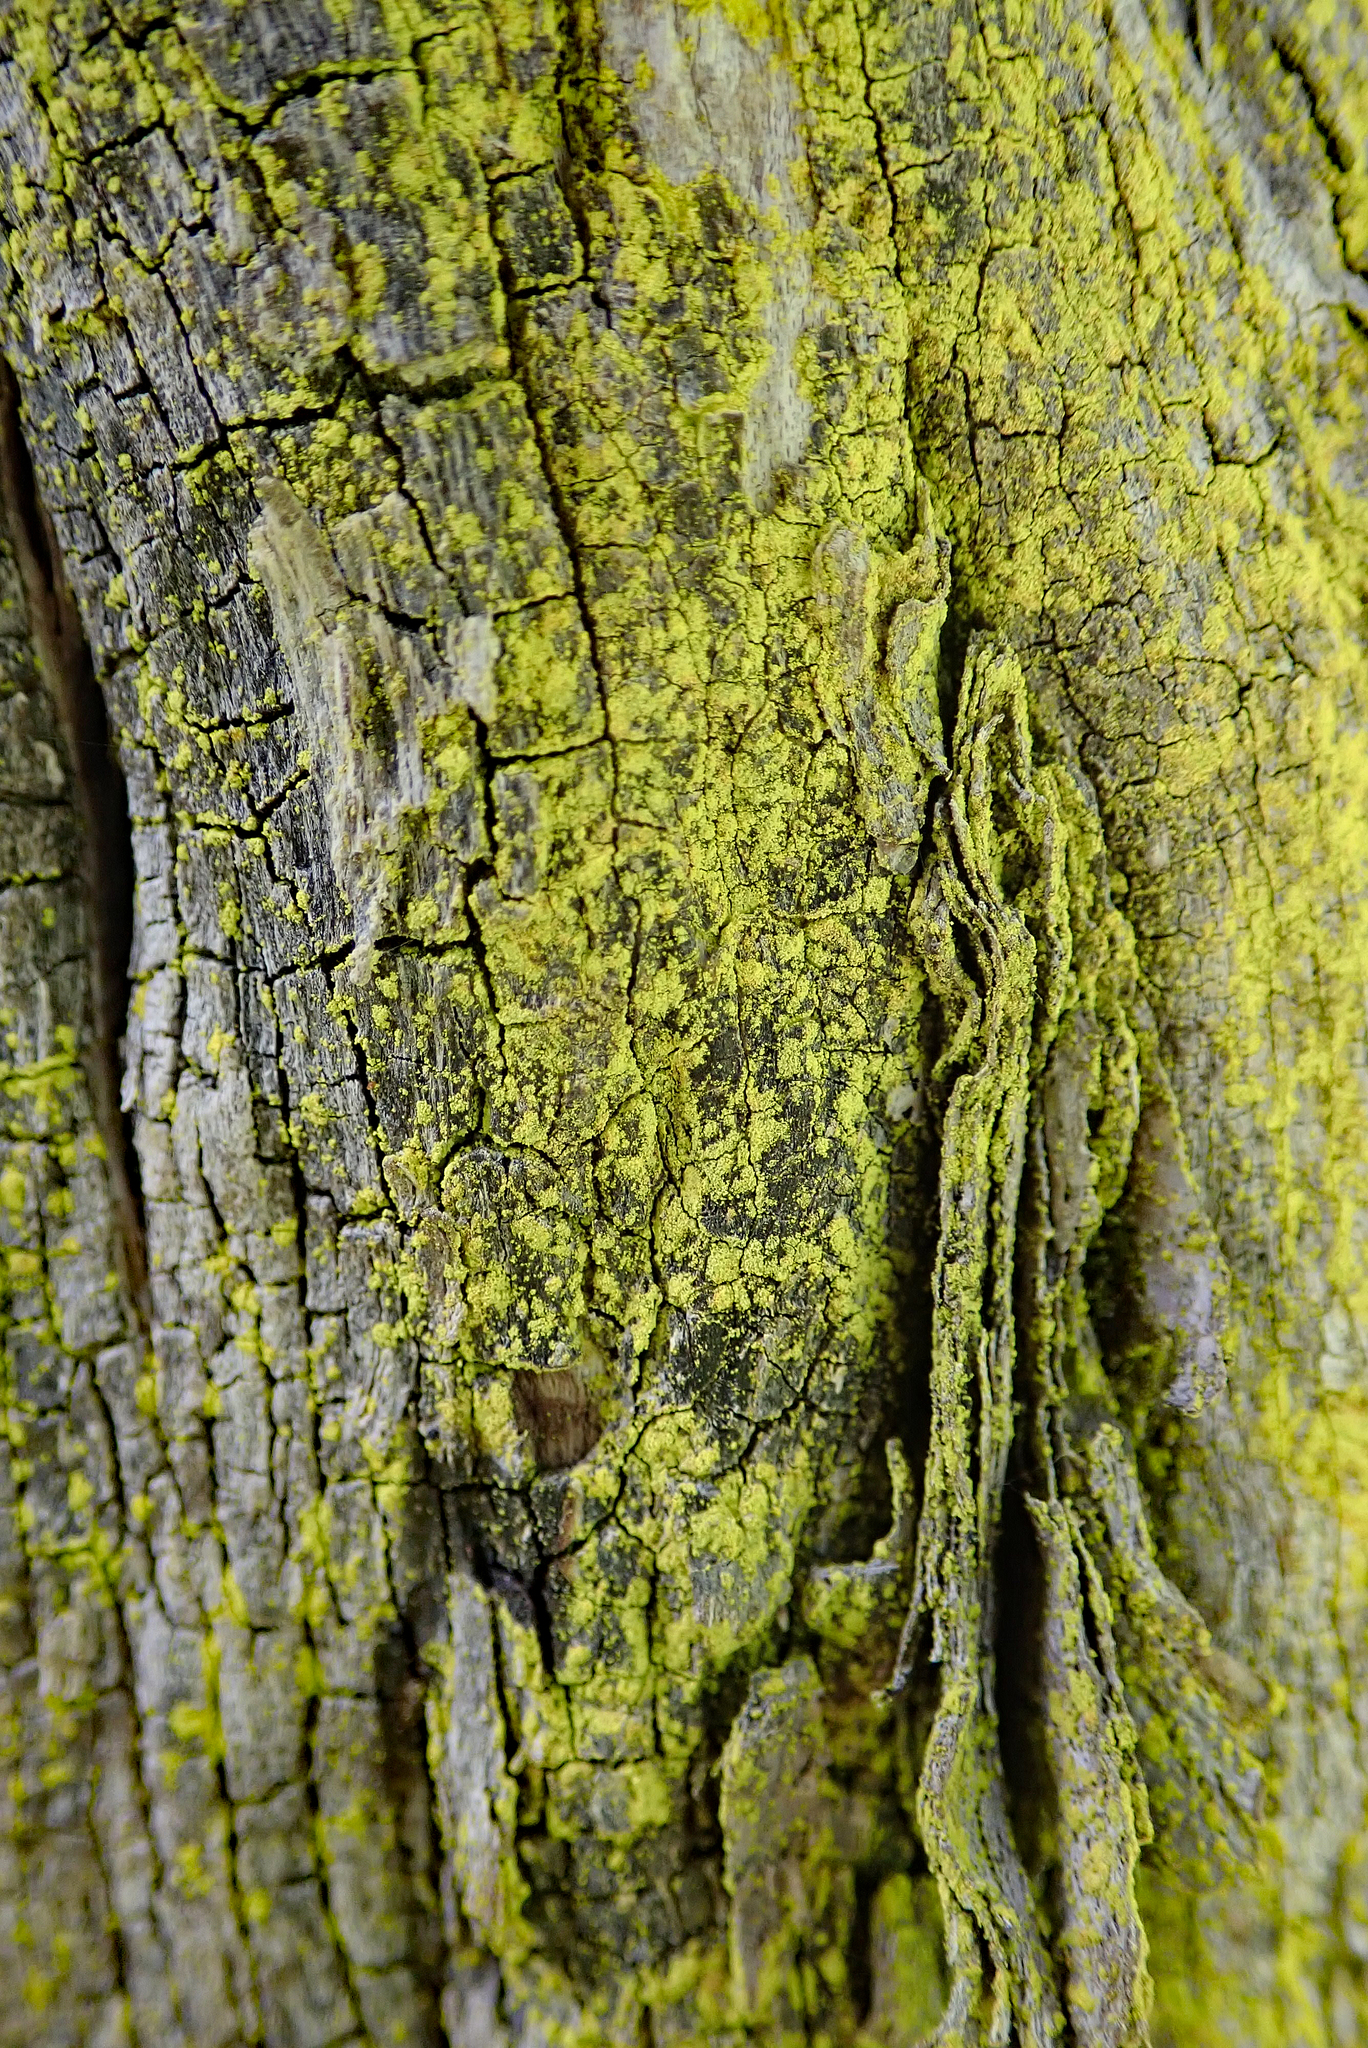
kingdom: Fungi
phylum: Ascomycota
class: Arthoniomycetes
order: Arthoniales
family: Chrysotrichaceae
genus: Chrysothrix
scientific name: Chrysothrix xanthina
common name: Common gold-dust
